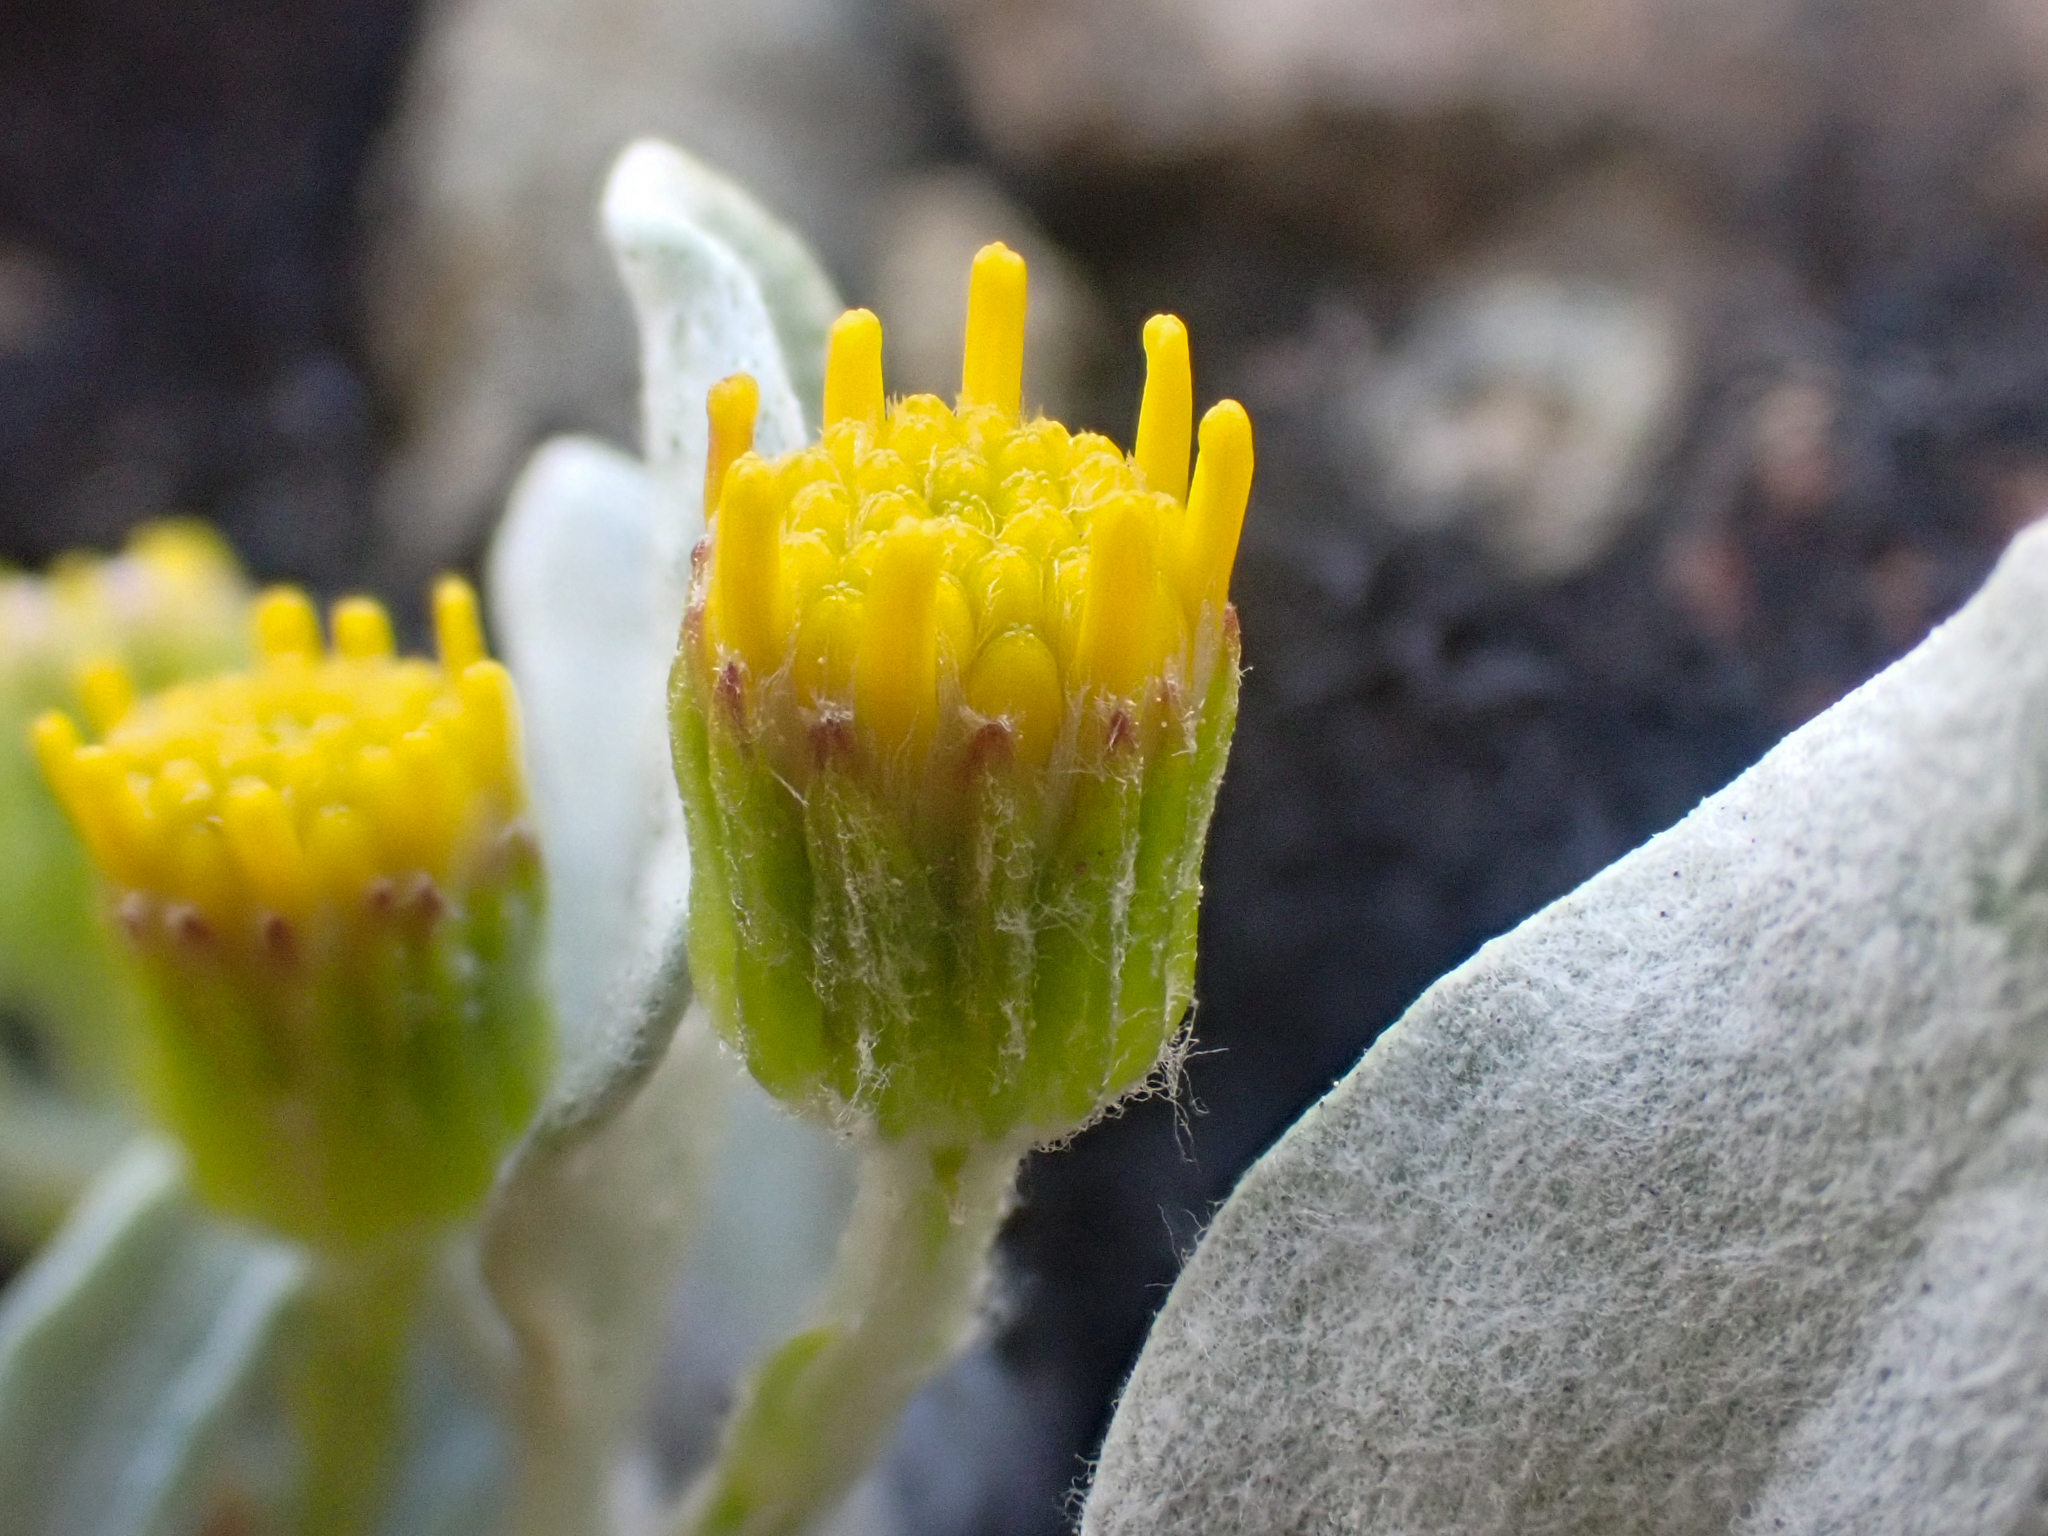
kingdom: Plantae
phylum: Tracheophyta
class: Magnoliopsida
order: Asterales
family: Asteraceae
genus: Packera
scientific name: Packera cana
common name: Woolly groundsel
